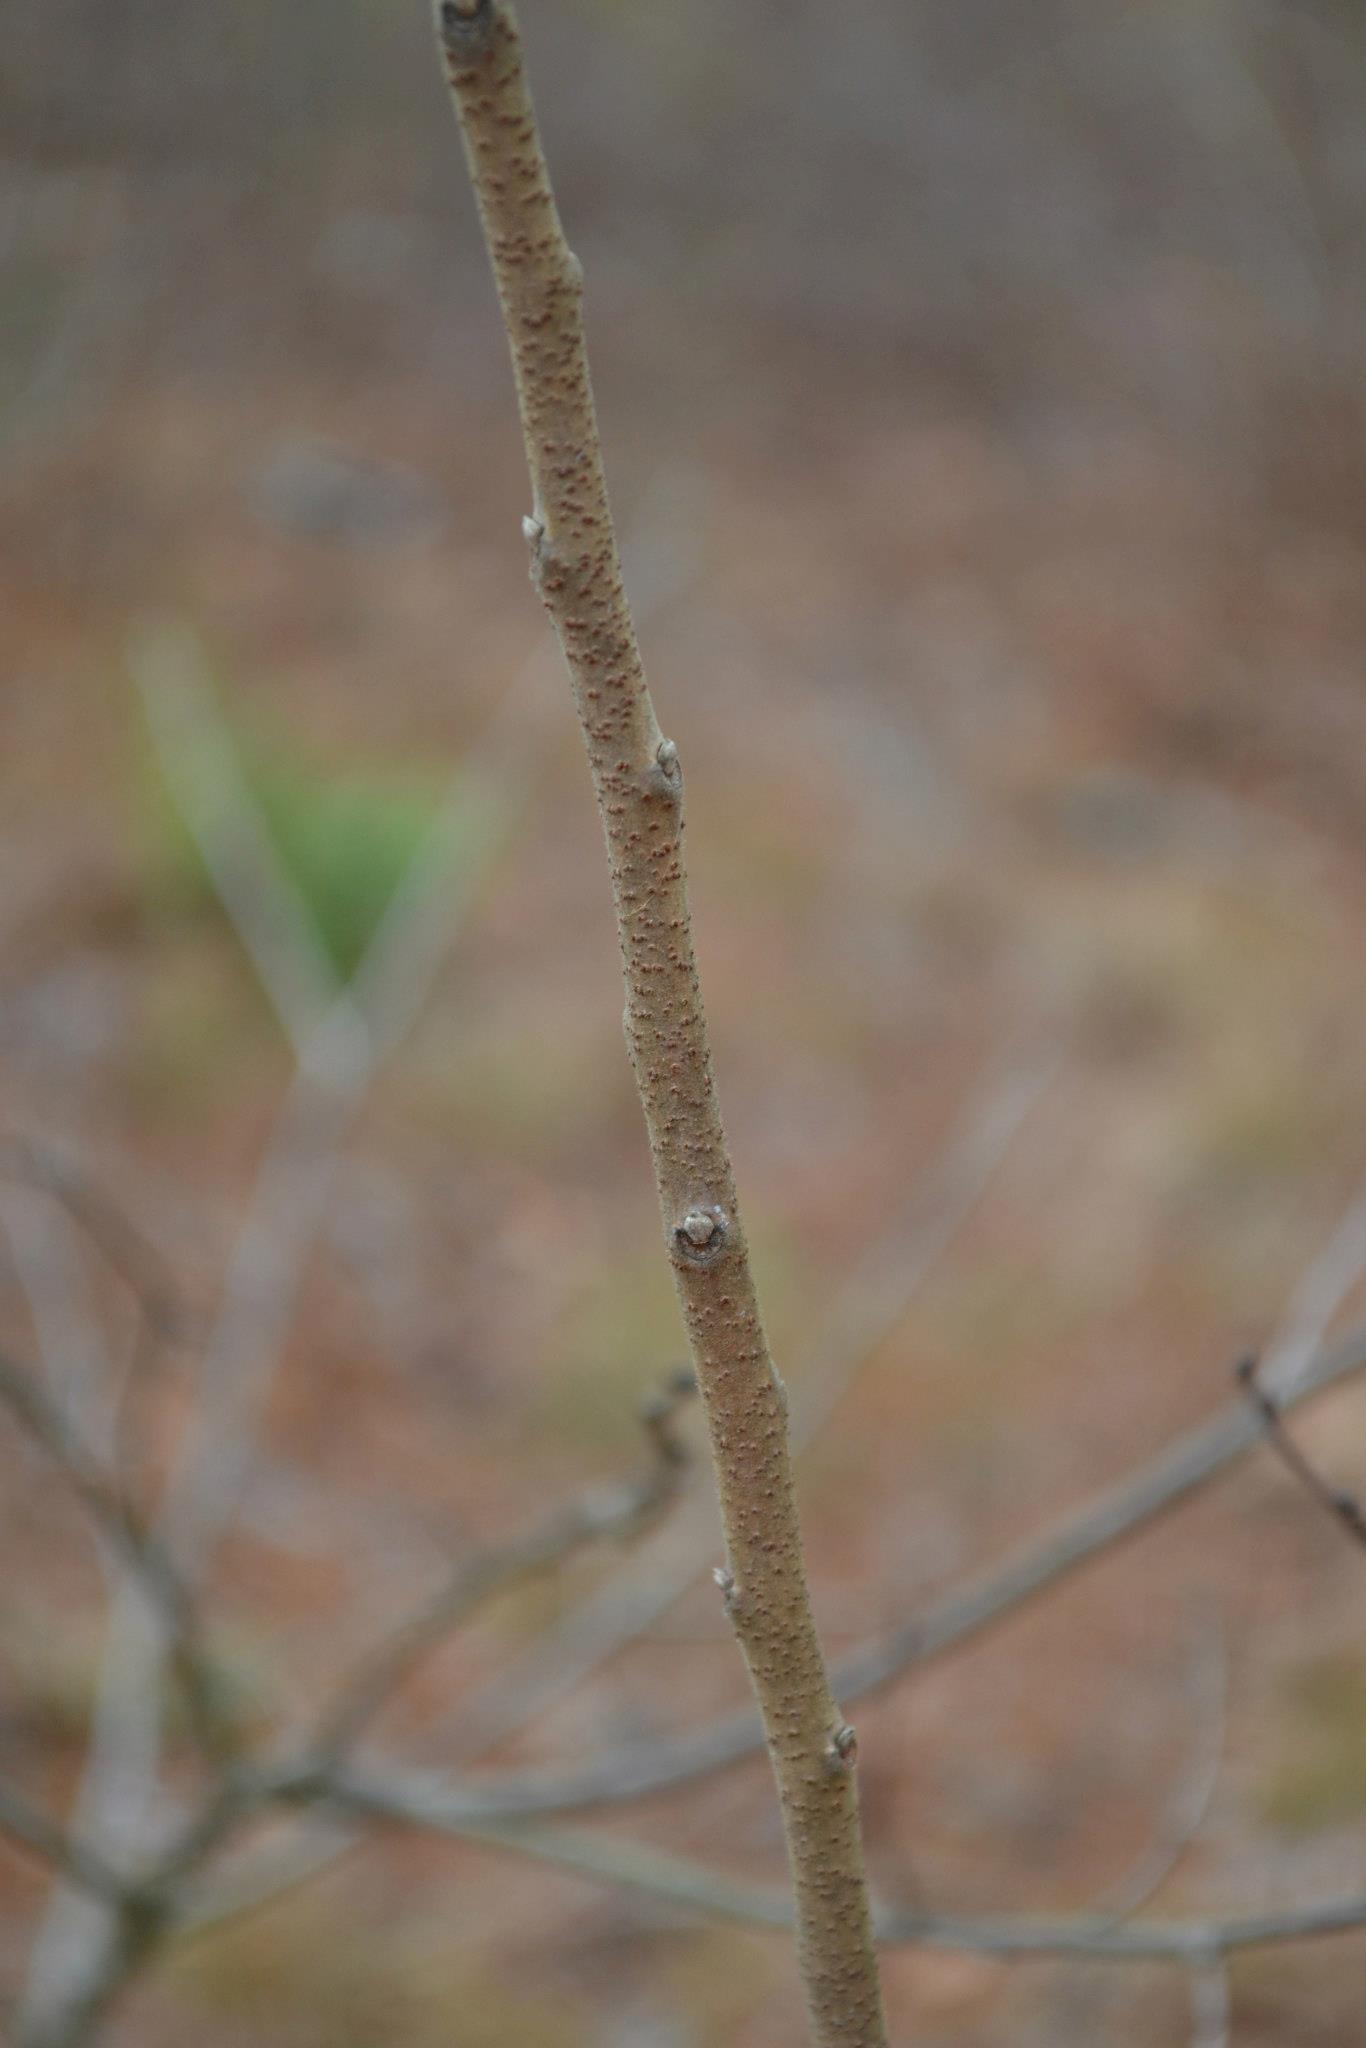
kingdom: Plantae
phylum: Tracheophyta
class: Magnoliopsida
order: Sapindales
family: Anacardiaceae
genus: Rhus
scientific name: Rhus copallina
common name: Shining sumac
